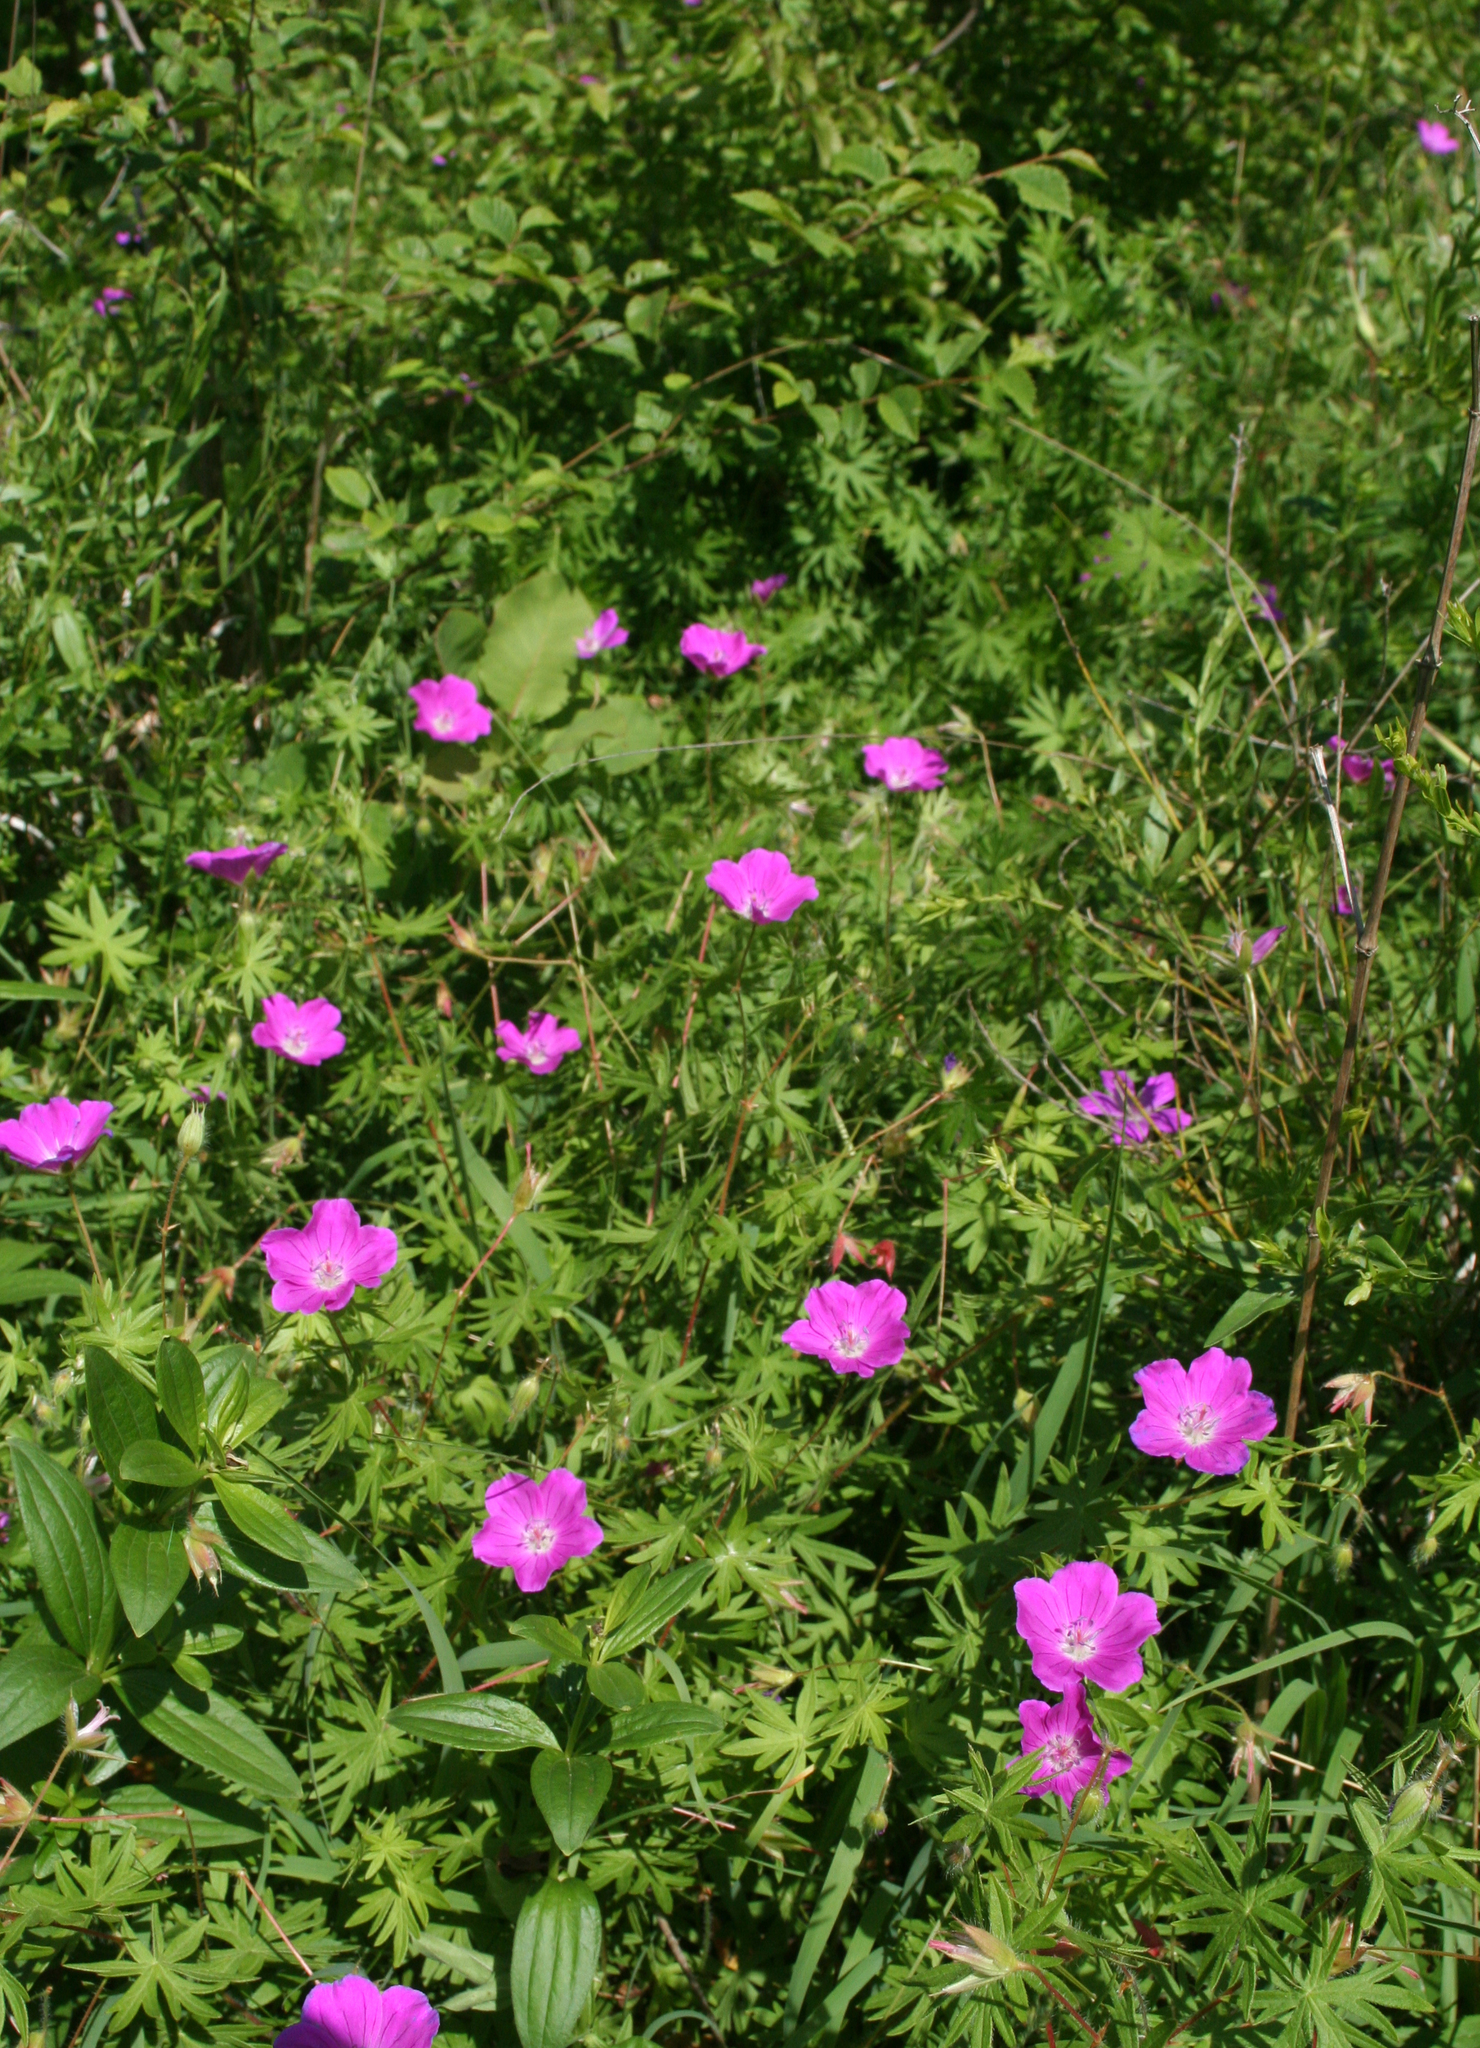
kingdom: Plantae
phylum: Tracheophyta
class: Magnoliopsida
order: Geraniales
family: Geraniaceae
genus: Geranium
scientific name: Geranium sanguineum
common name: Bloody crane's-bill
